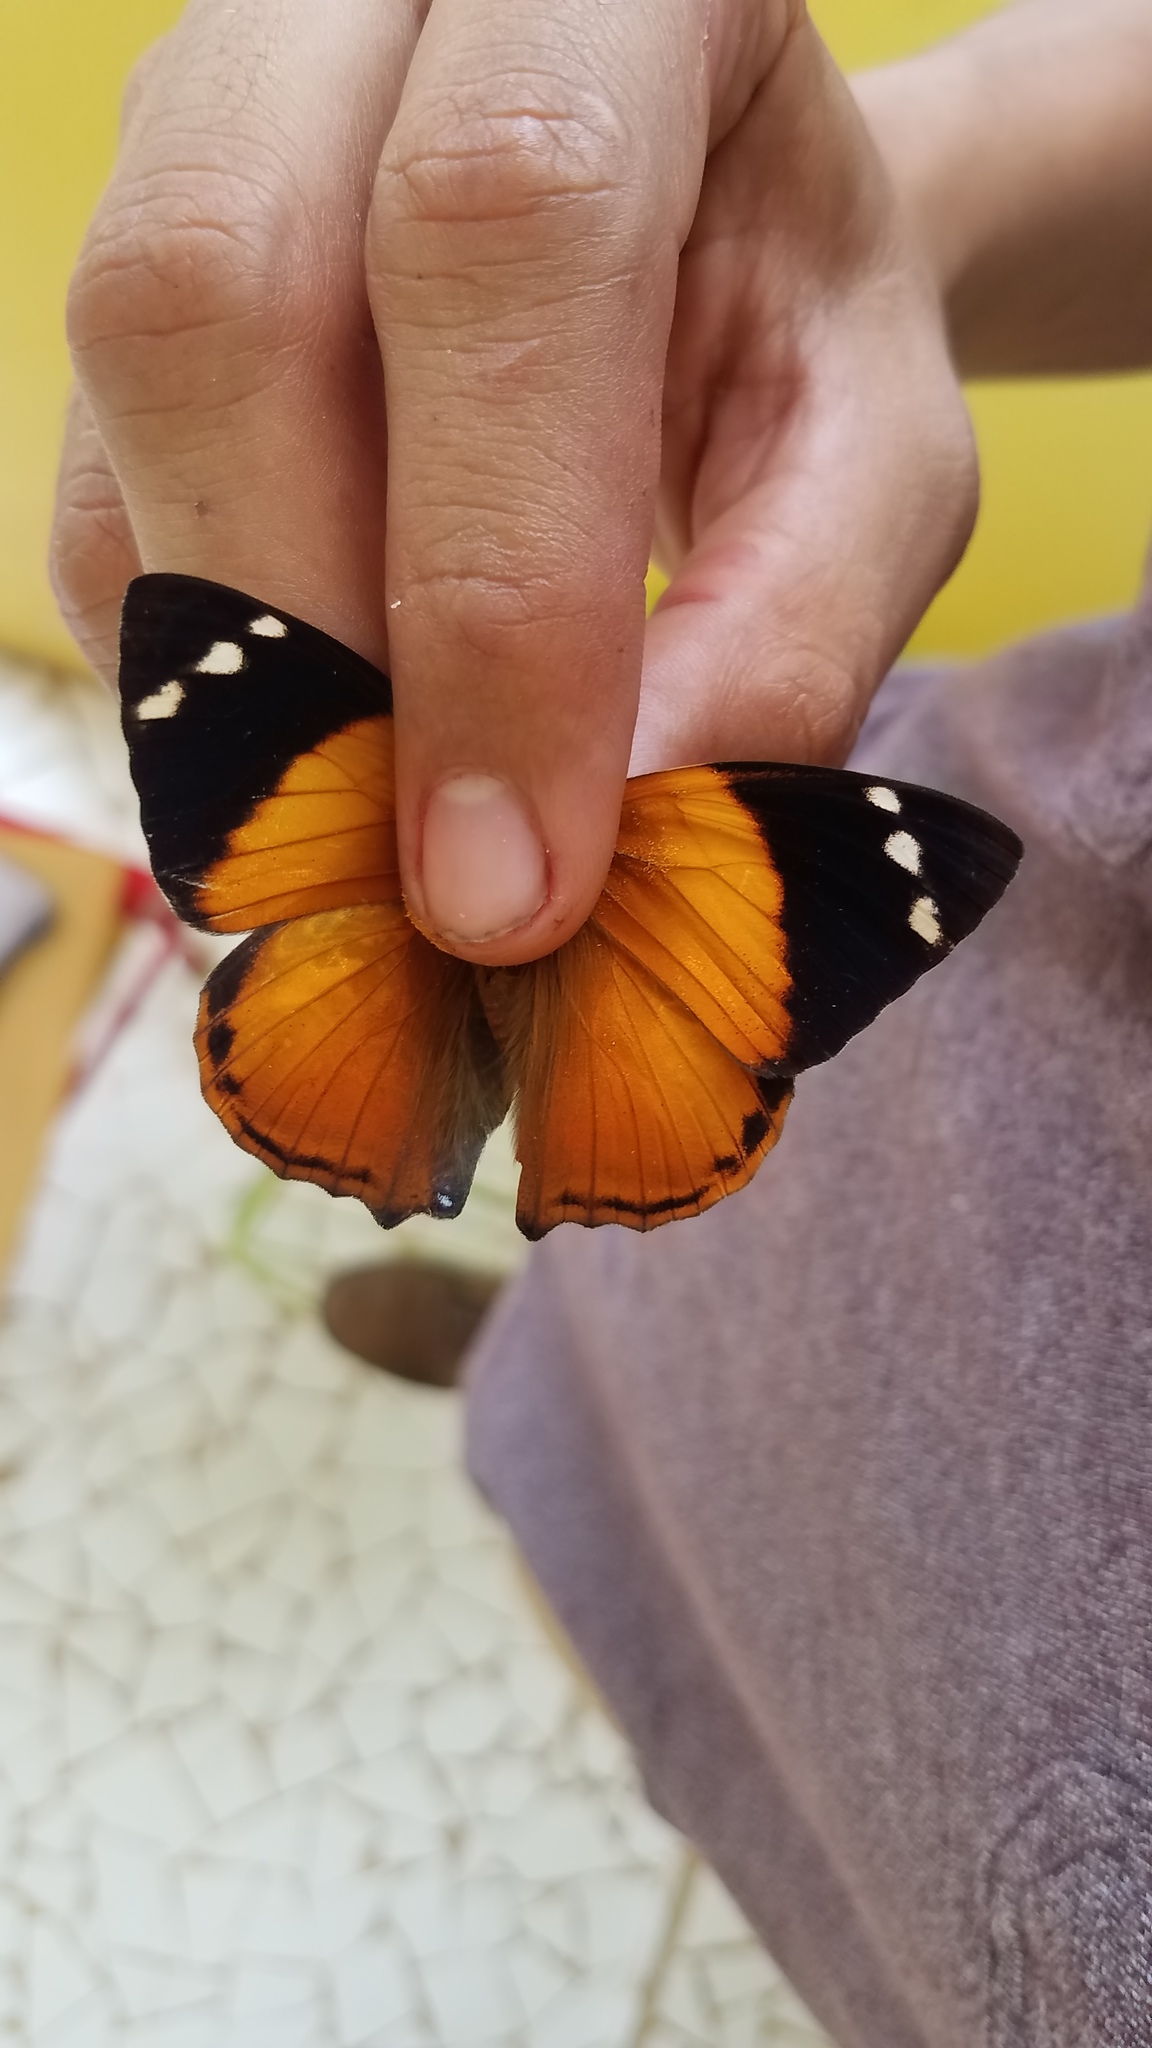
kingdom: Animalia
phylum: Arthropoda
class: Insecta
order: Lepidoptera
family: Nymphalidae
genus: Smyrna
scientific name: Smyrna blomfildia
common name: Blomfild's beauty
